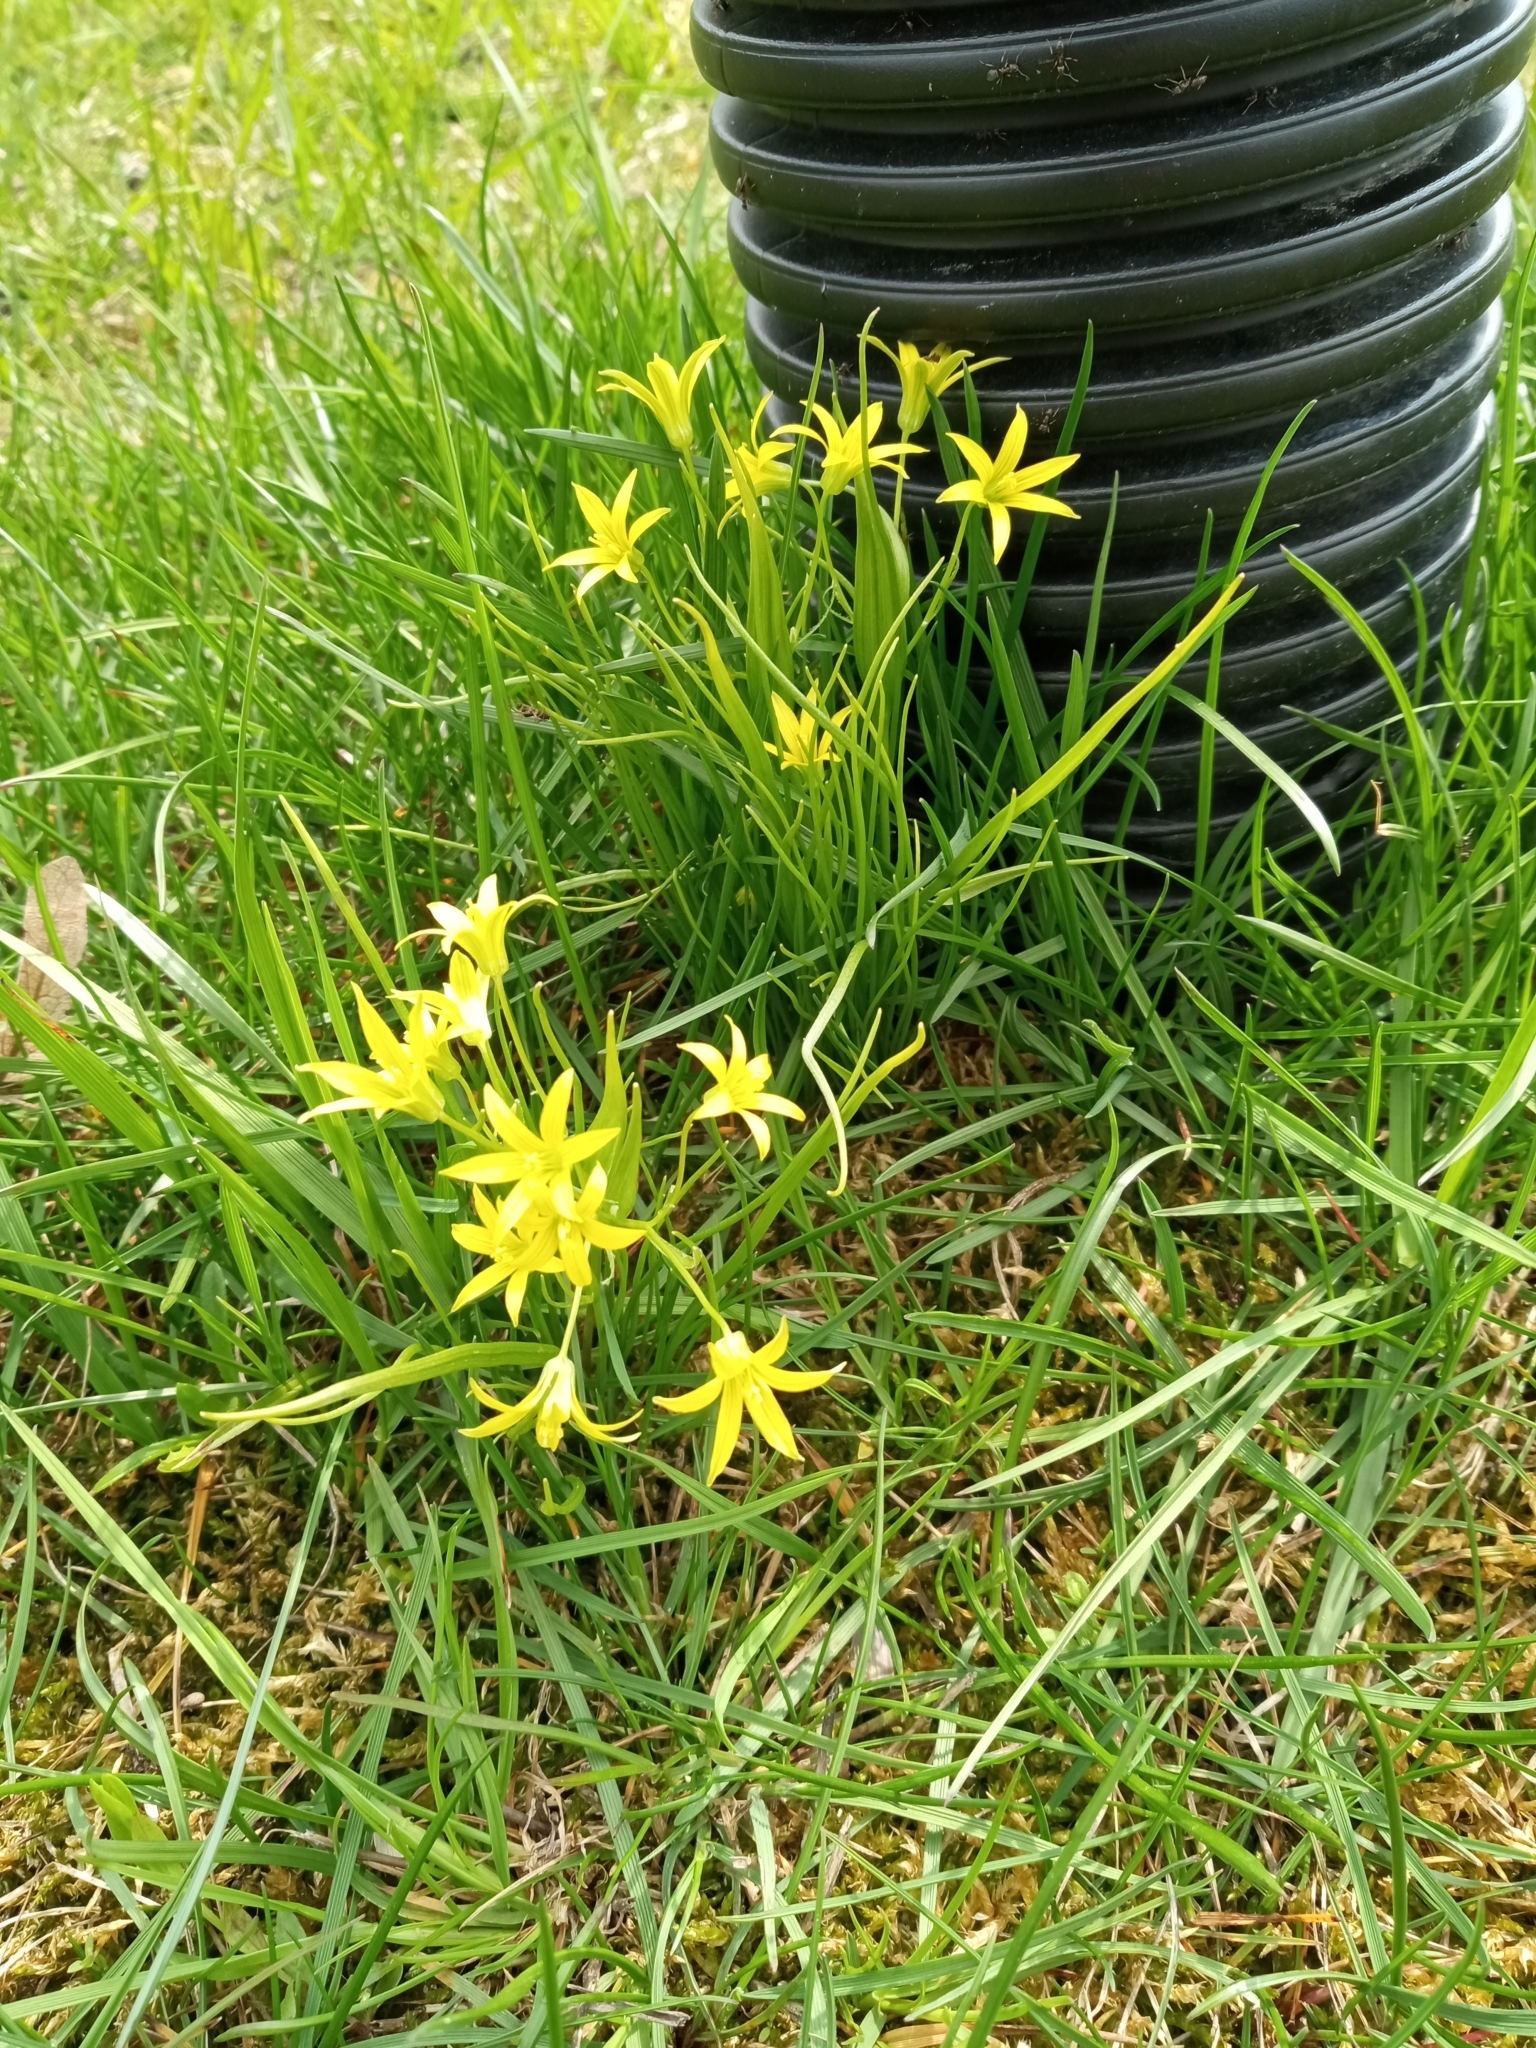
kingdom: Plantae
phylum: Tracheophyta
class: Liliopsida
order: Liliales
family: Liliaceae
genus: Gagea
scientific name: Gagea minima
